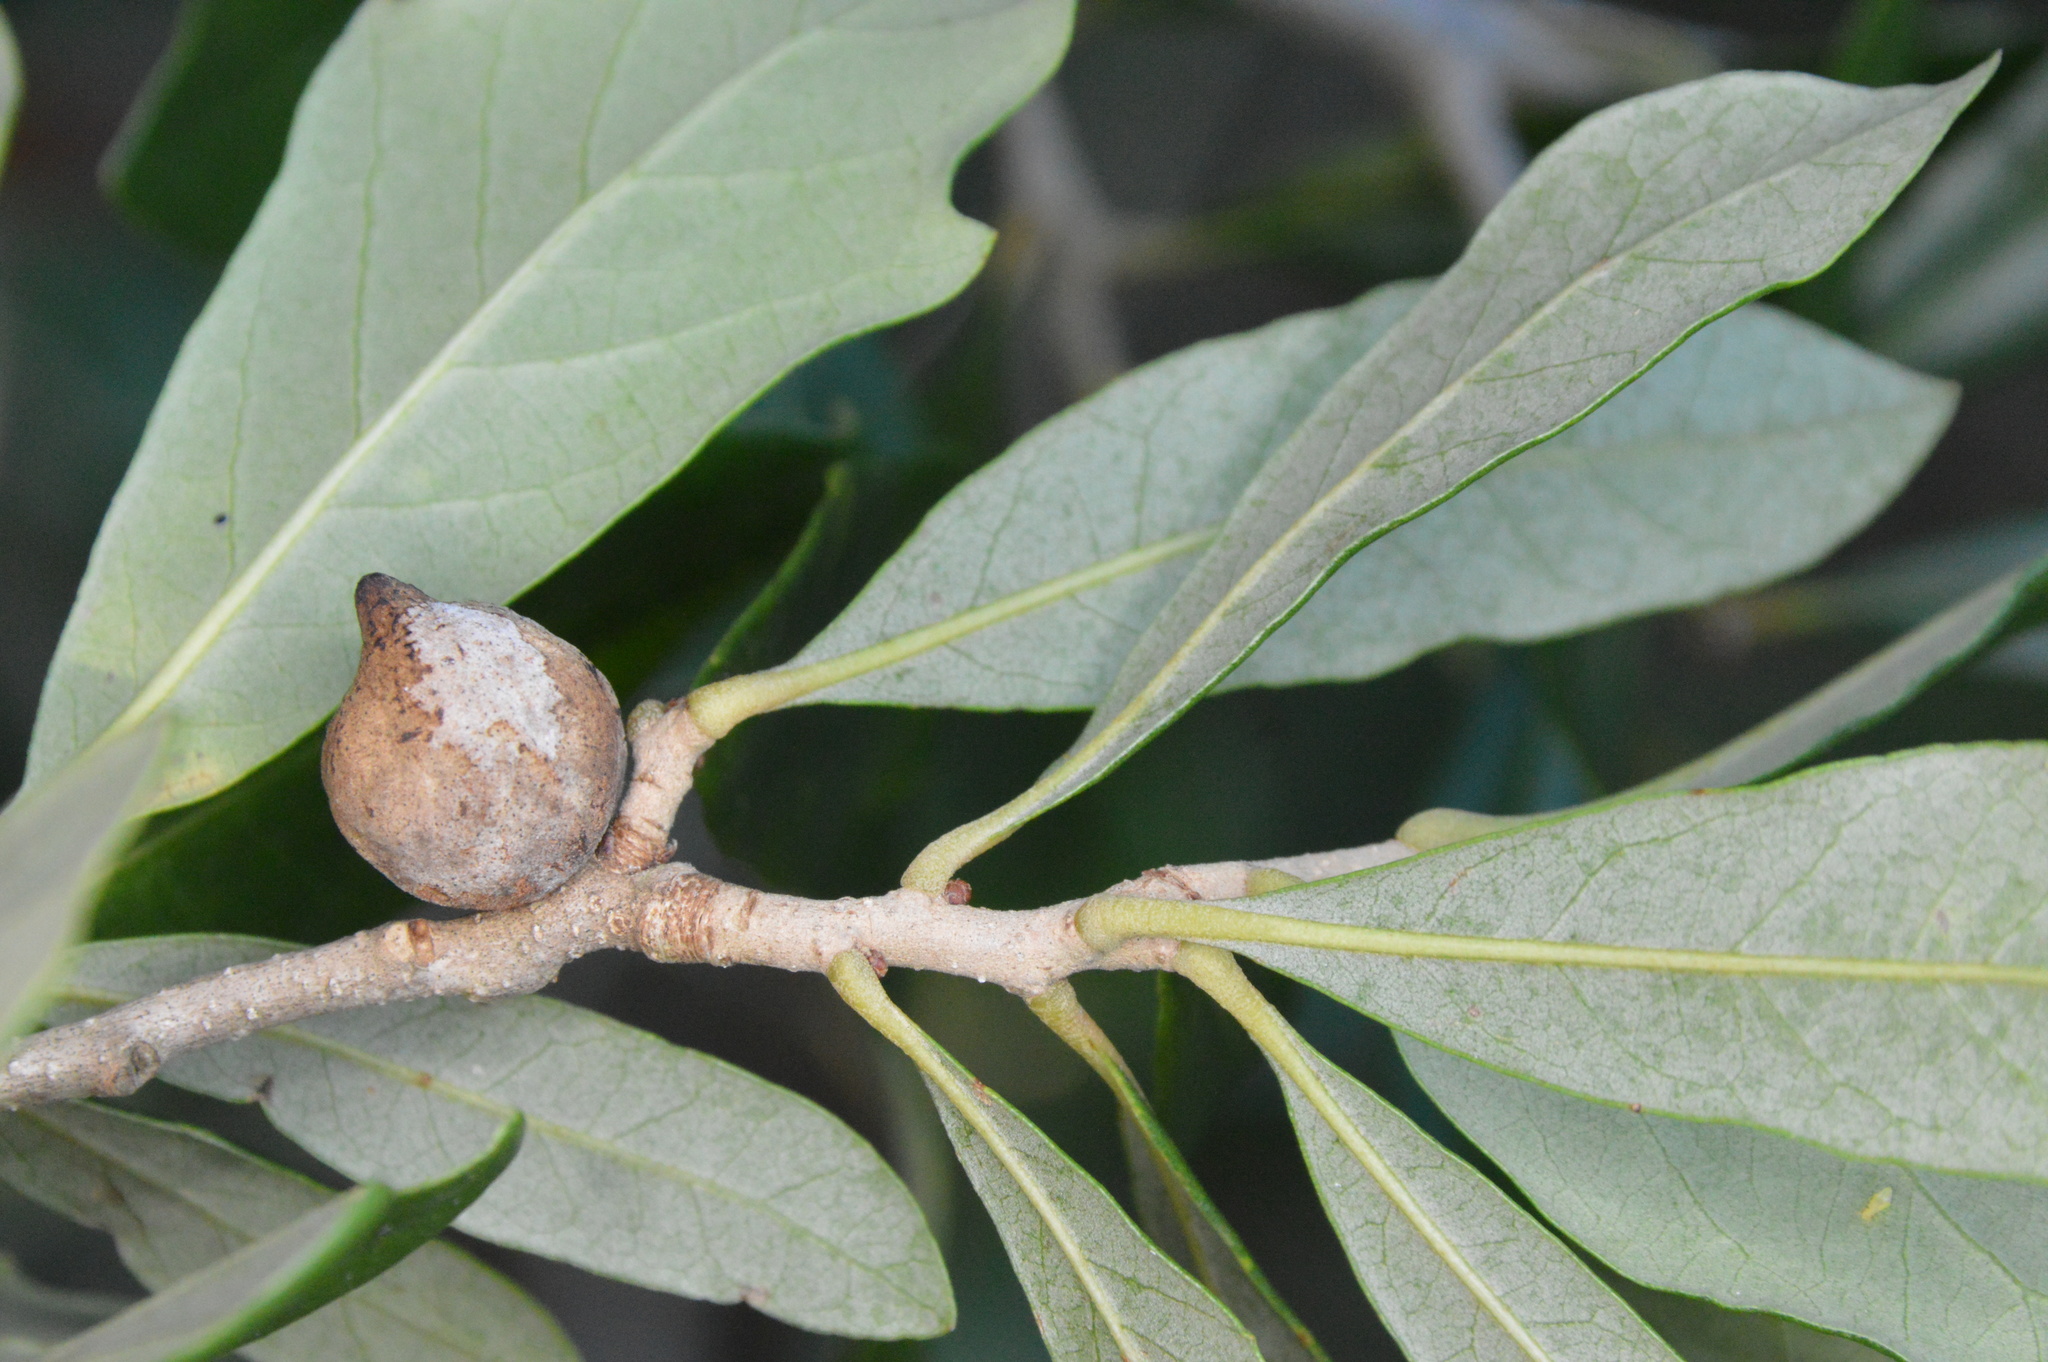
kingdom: Animalia
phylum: Arthropoda
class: Insecta
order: Hymenoptera
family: Cynipidae
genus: Disholcaspis
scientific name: Disholcaspis
